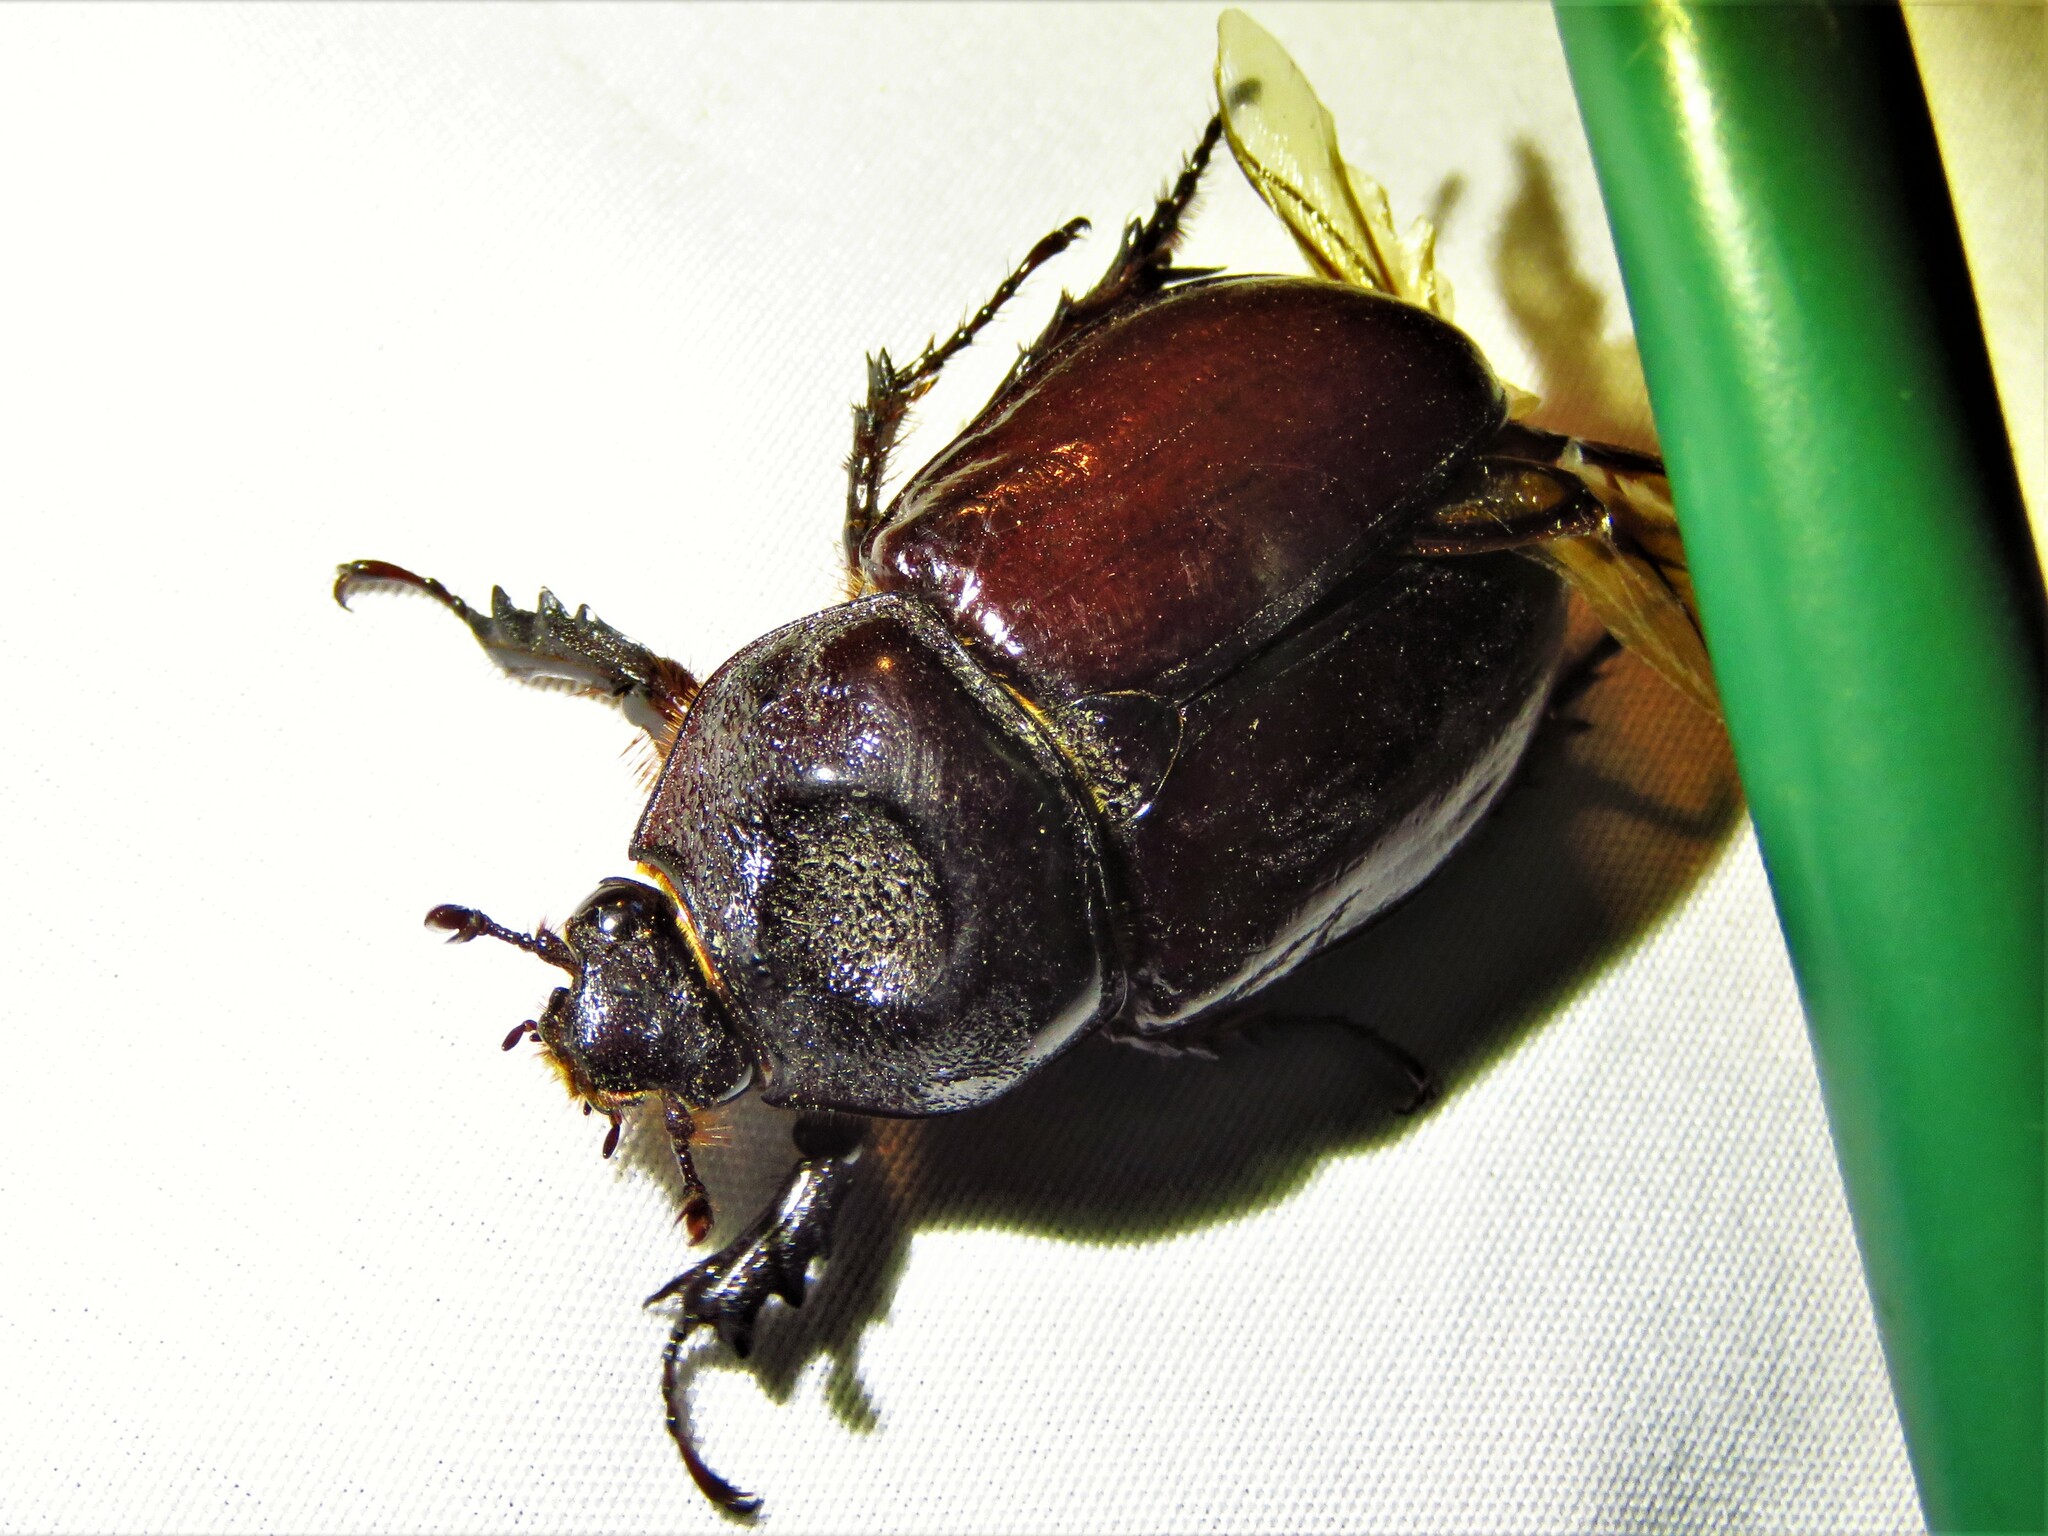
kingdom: Animalia
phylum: Arthropoda
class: Insecta
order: Coleoptera
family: Scarabaeidae
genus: Strategus
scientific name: Strategus aloeus
